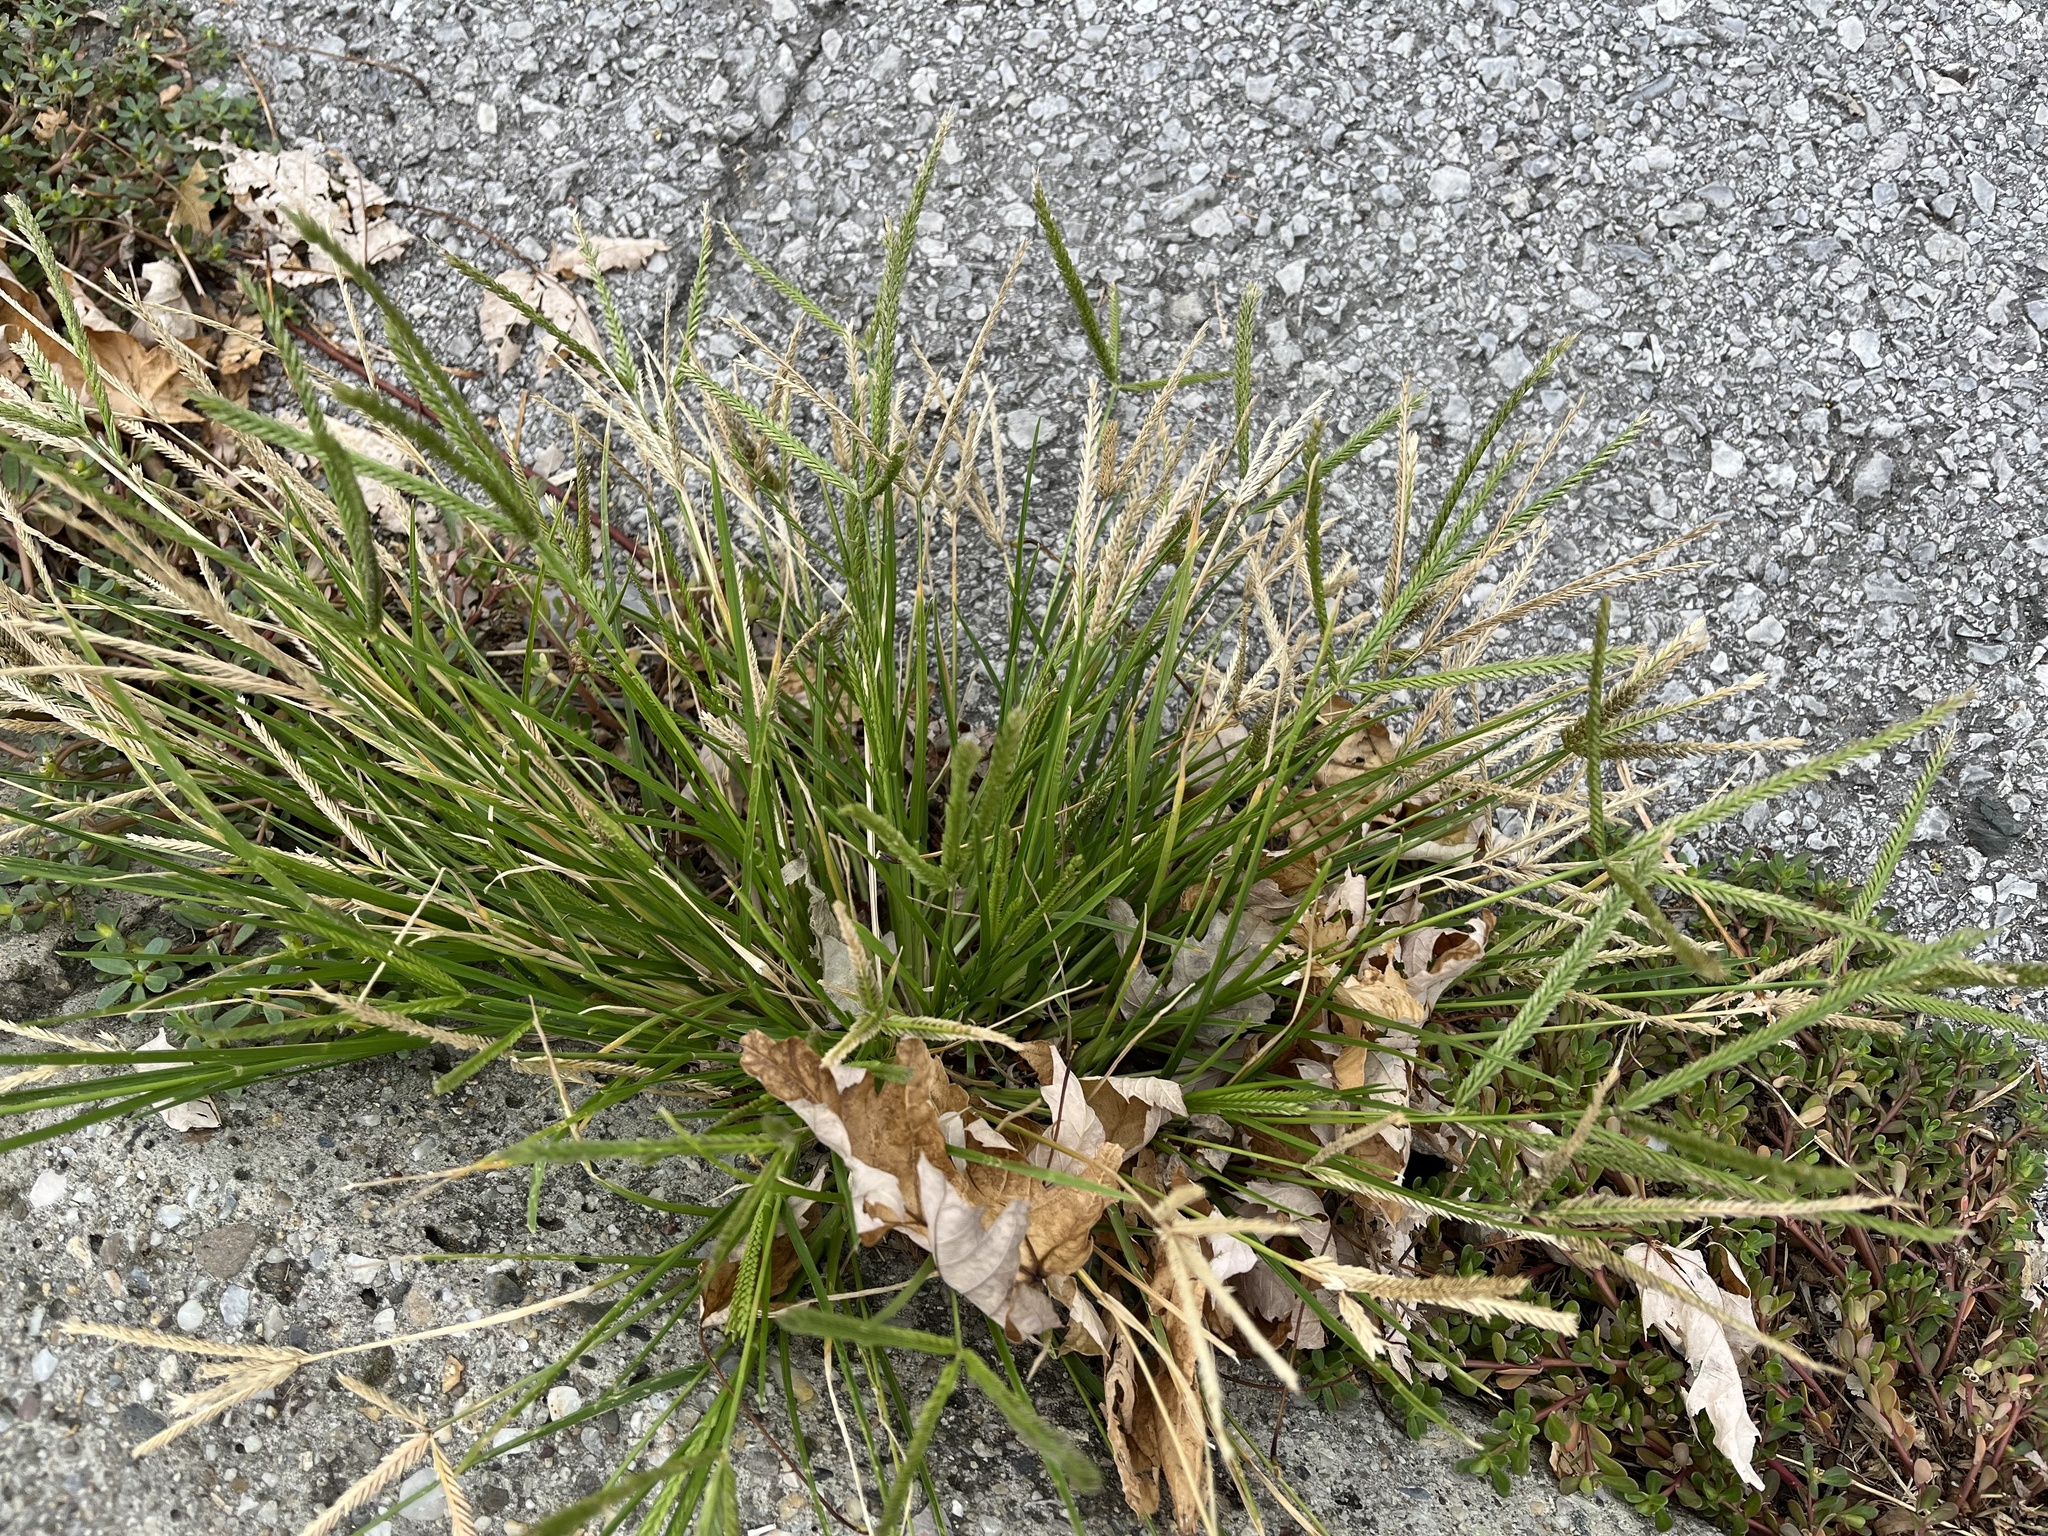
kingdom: Plantae
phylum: Tracheophyta
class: Liliopsida
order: Poales
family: Poaceae
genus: Eleusine
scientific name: Eleusine indica
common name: Yard-grass
